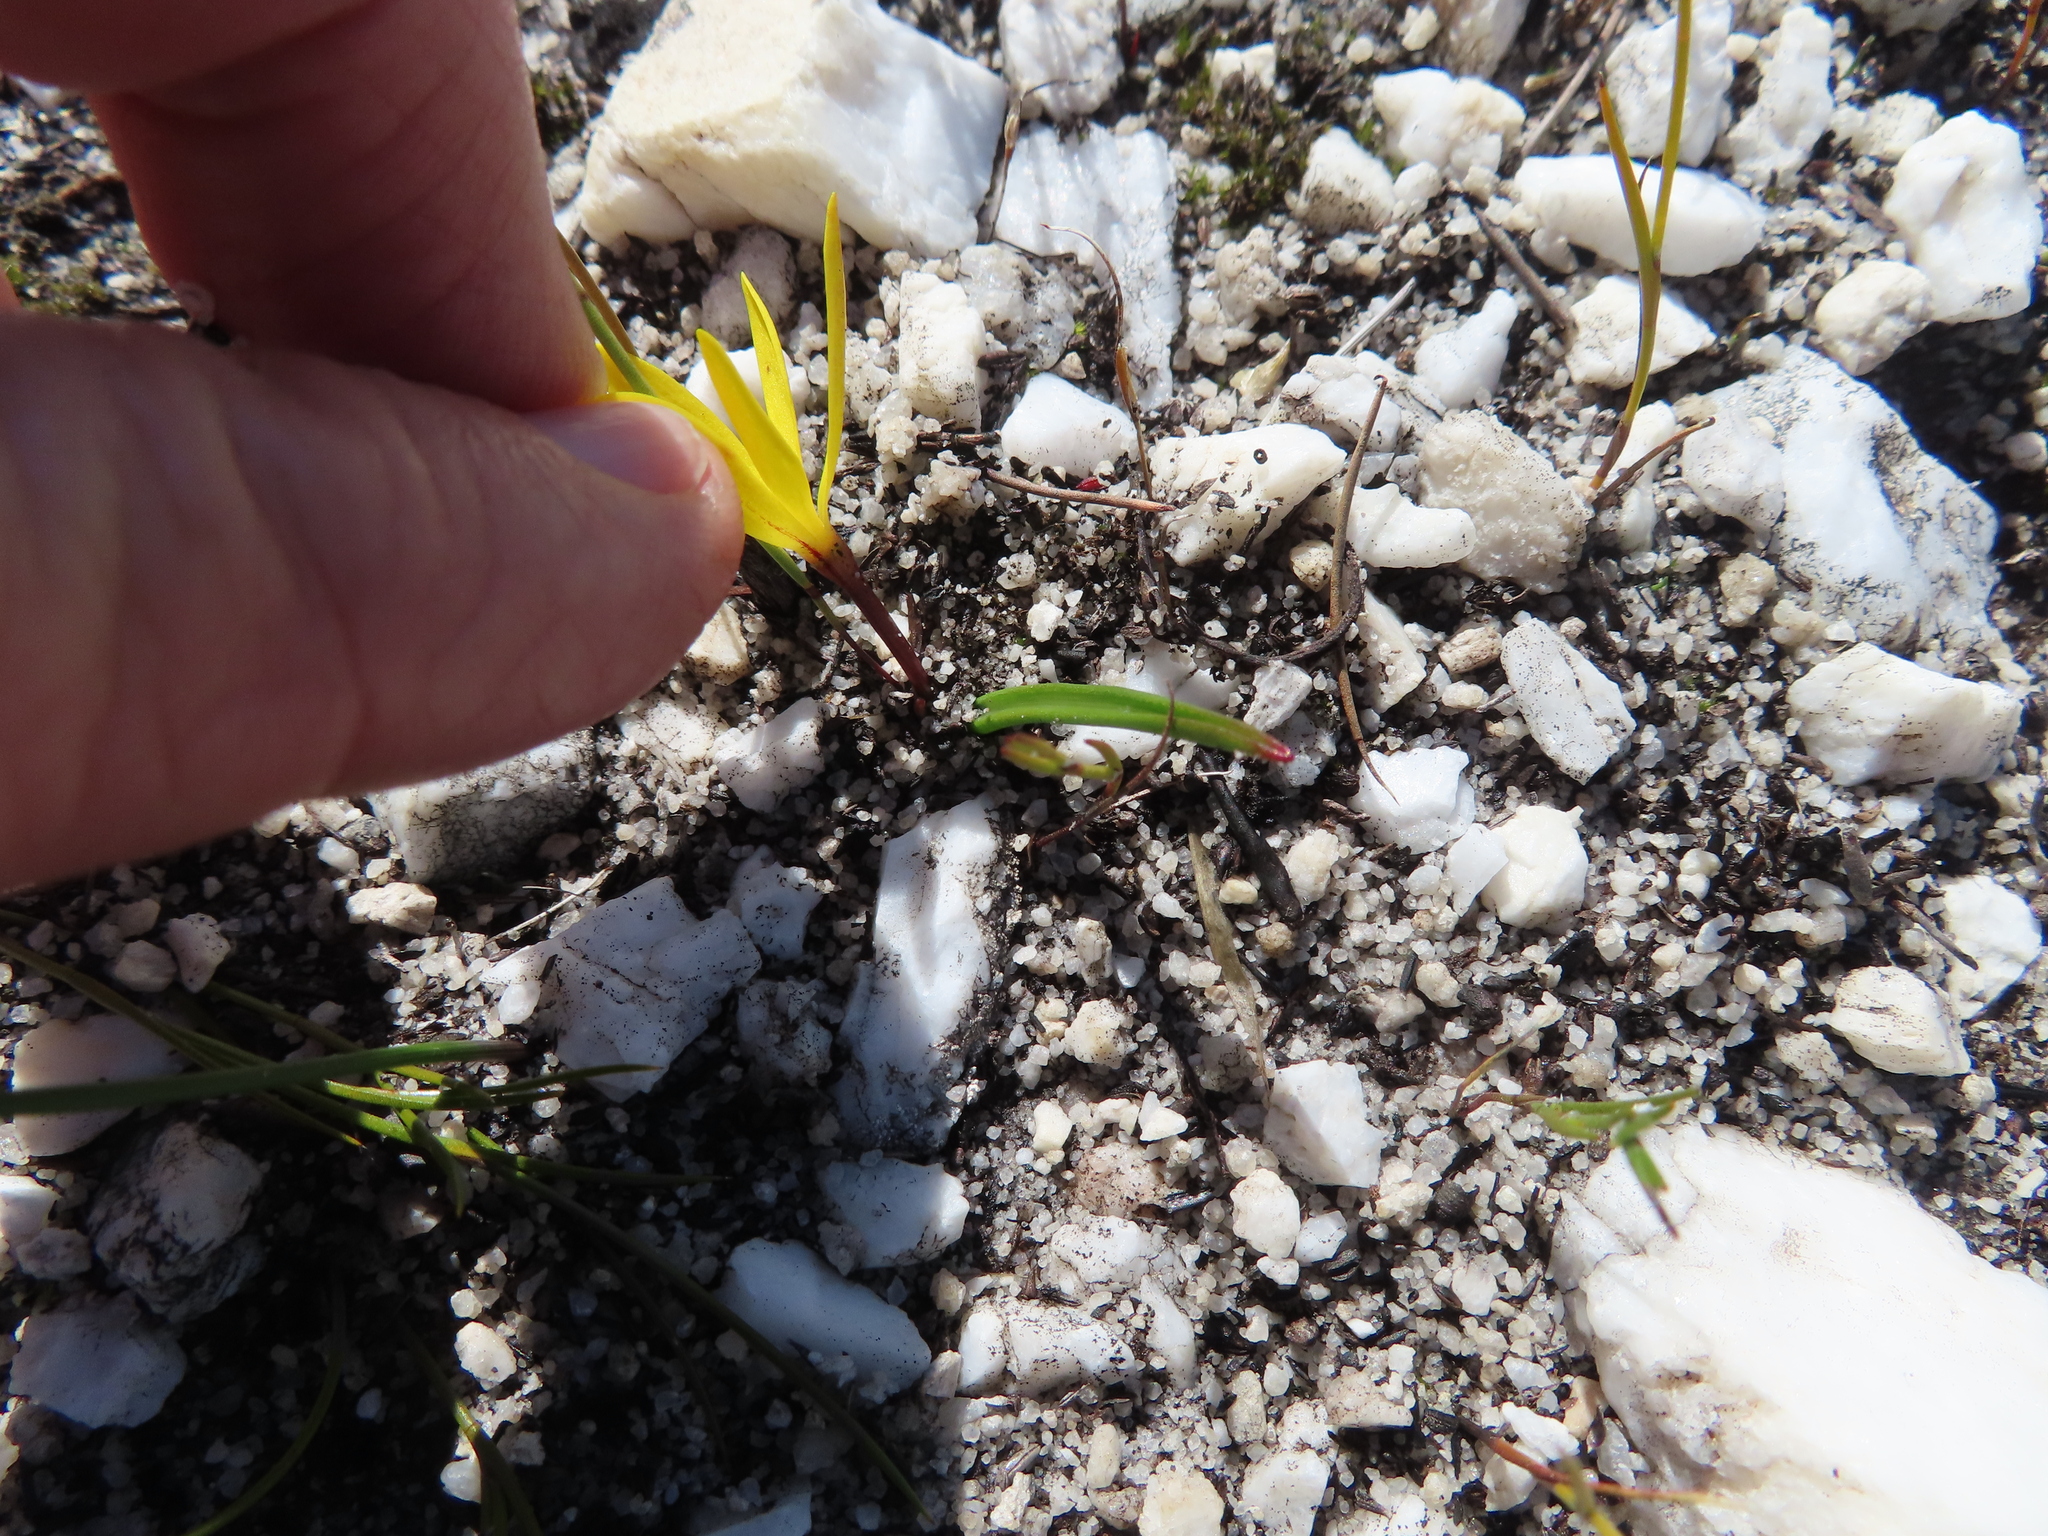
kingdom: Plantae
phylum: Tracheophyta
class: Liliopsida
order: Asparagales
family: Hypoxidaceae
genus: Pauridia
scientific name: Pauridia monophylla
